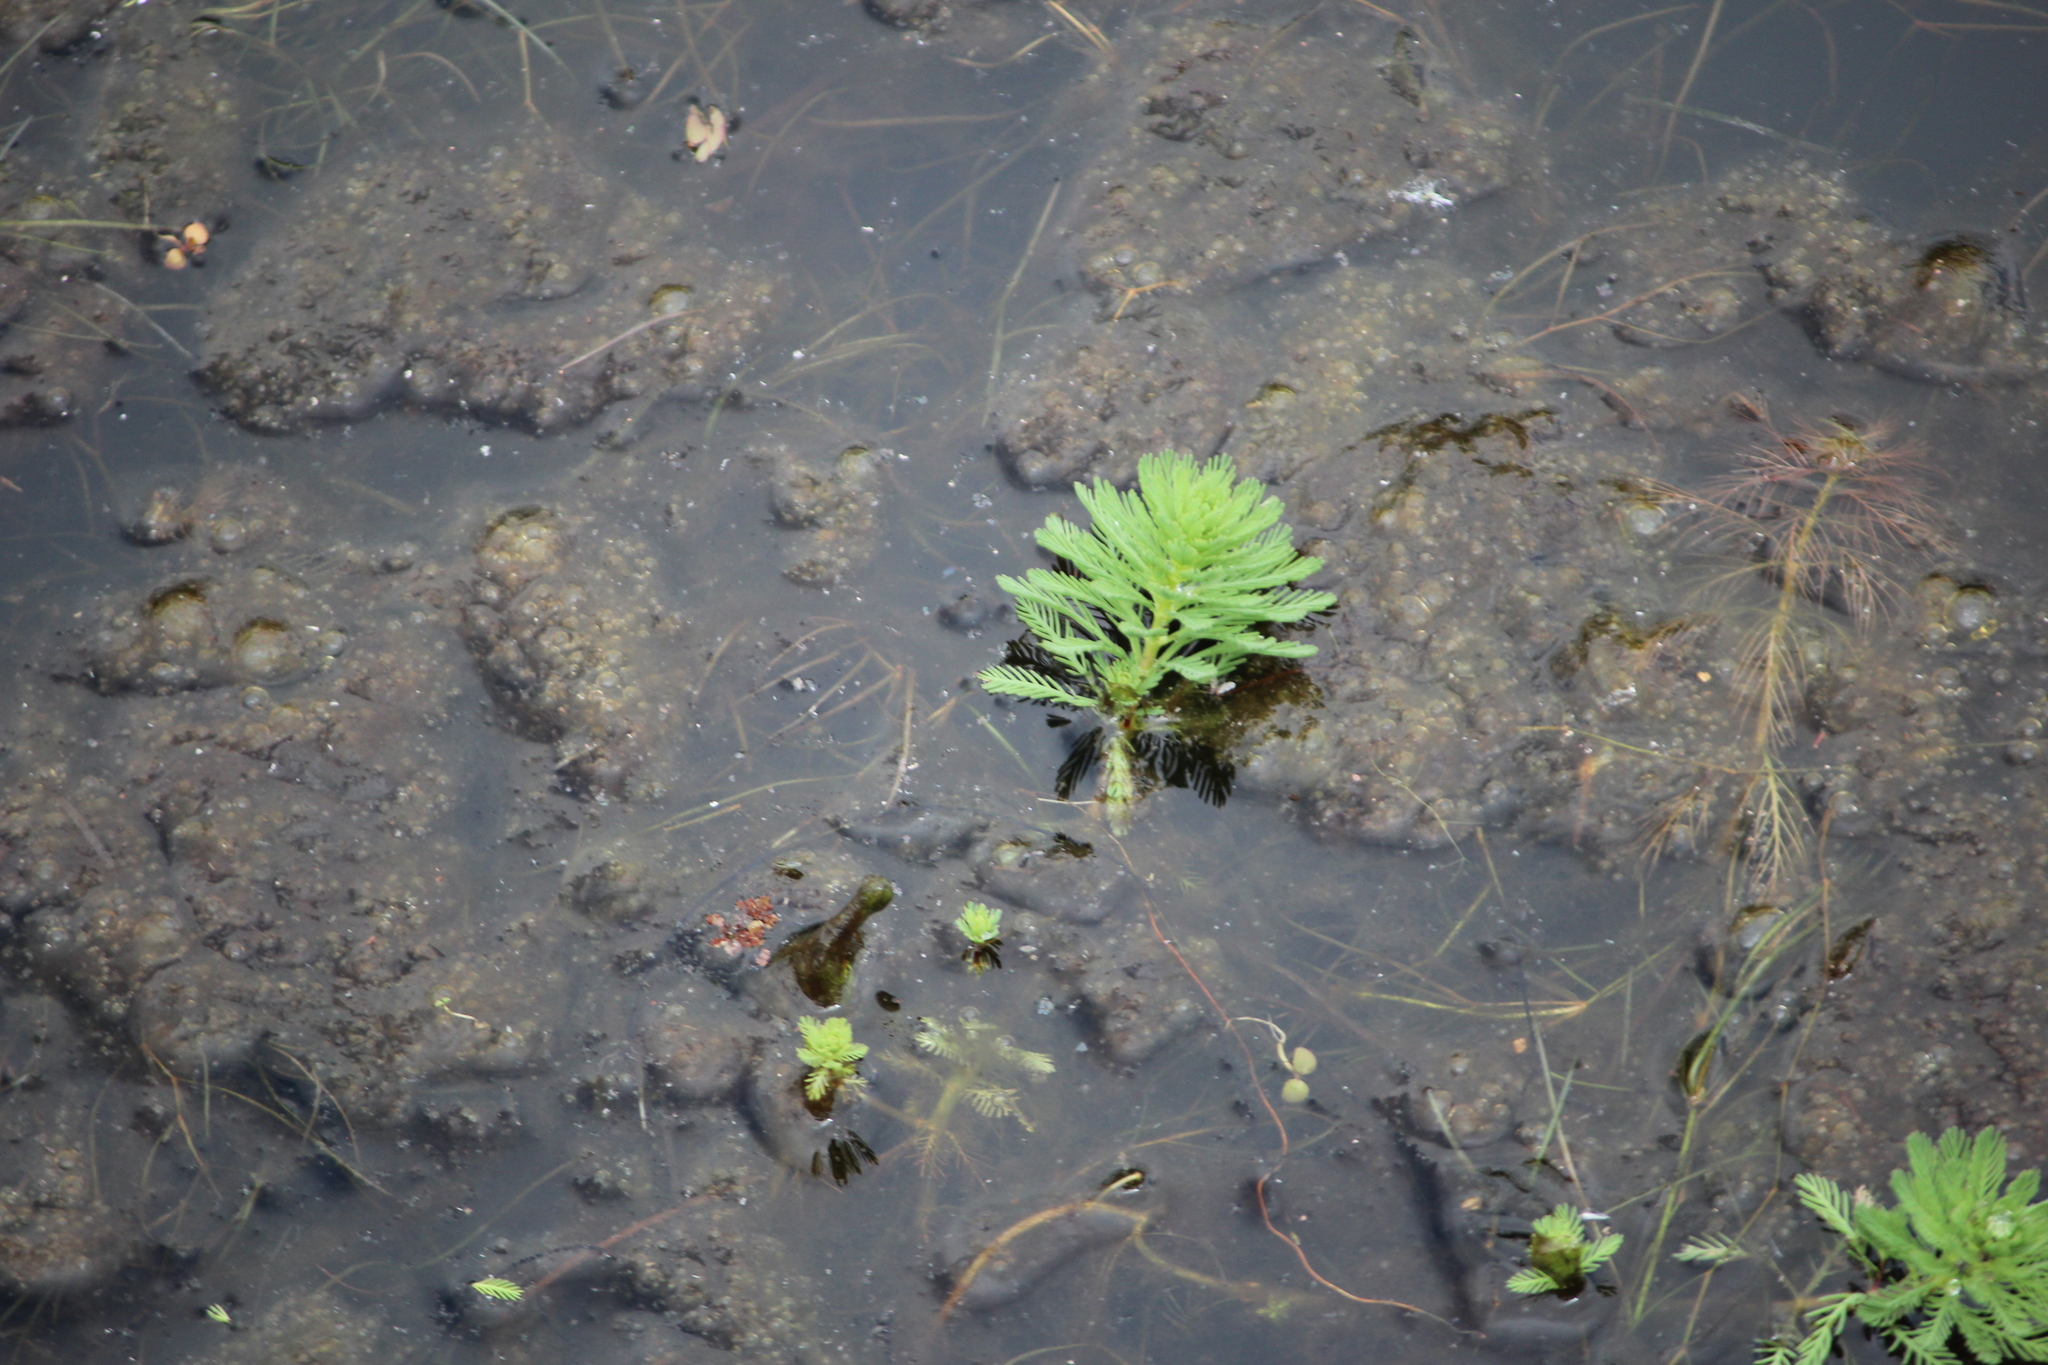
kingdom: Plantae
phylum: Tracheophyta
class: Magnoliopsida
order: Saxifragales
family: Haloragaceae
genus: Myriophyllum
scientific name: Myriophyllum aquaticum
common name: Parrot's feather
